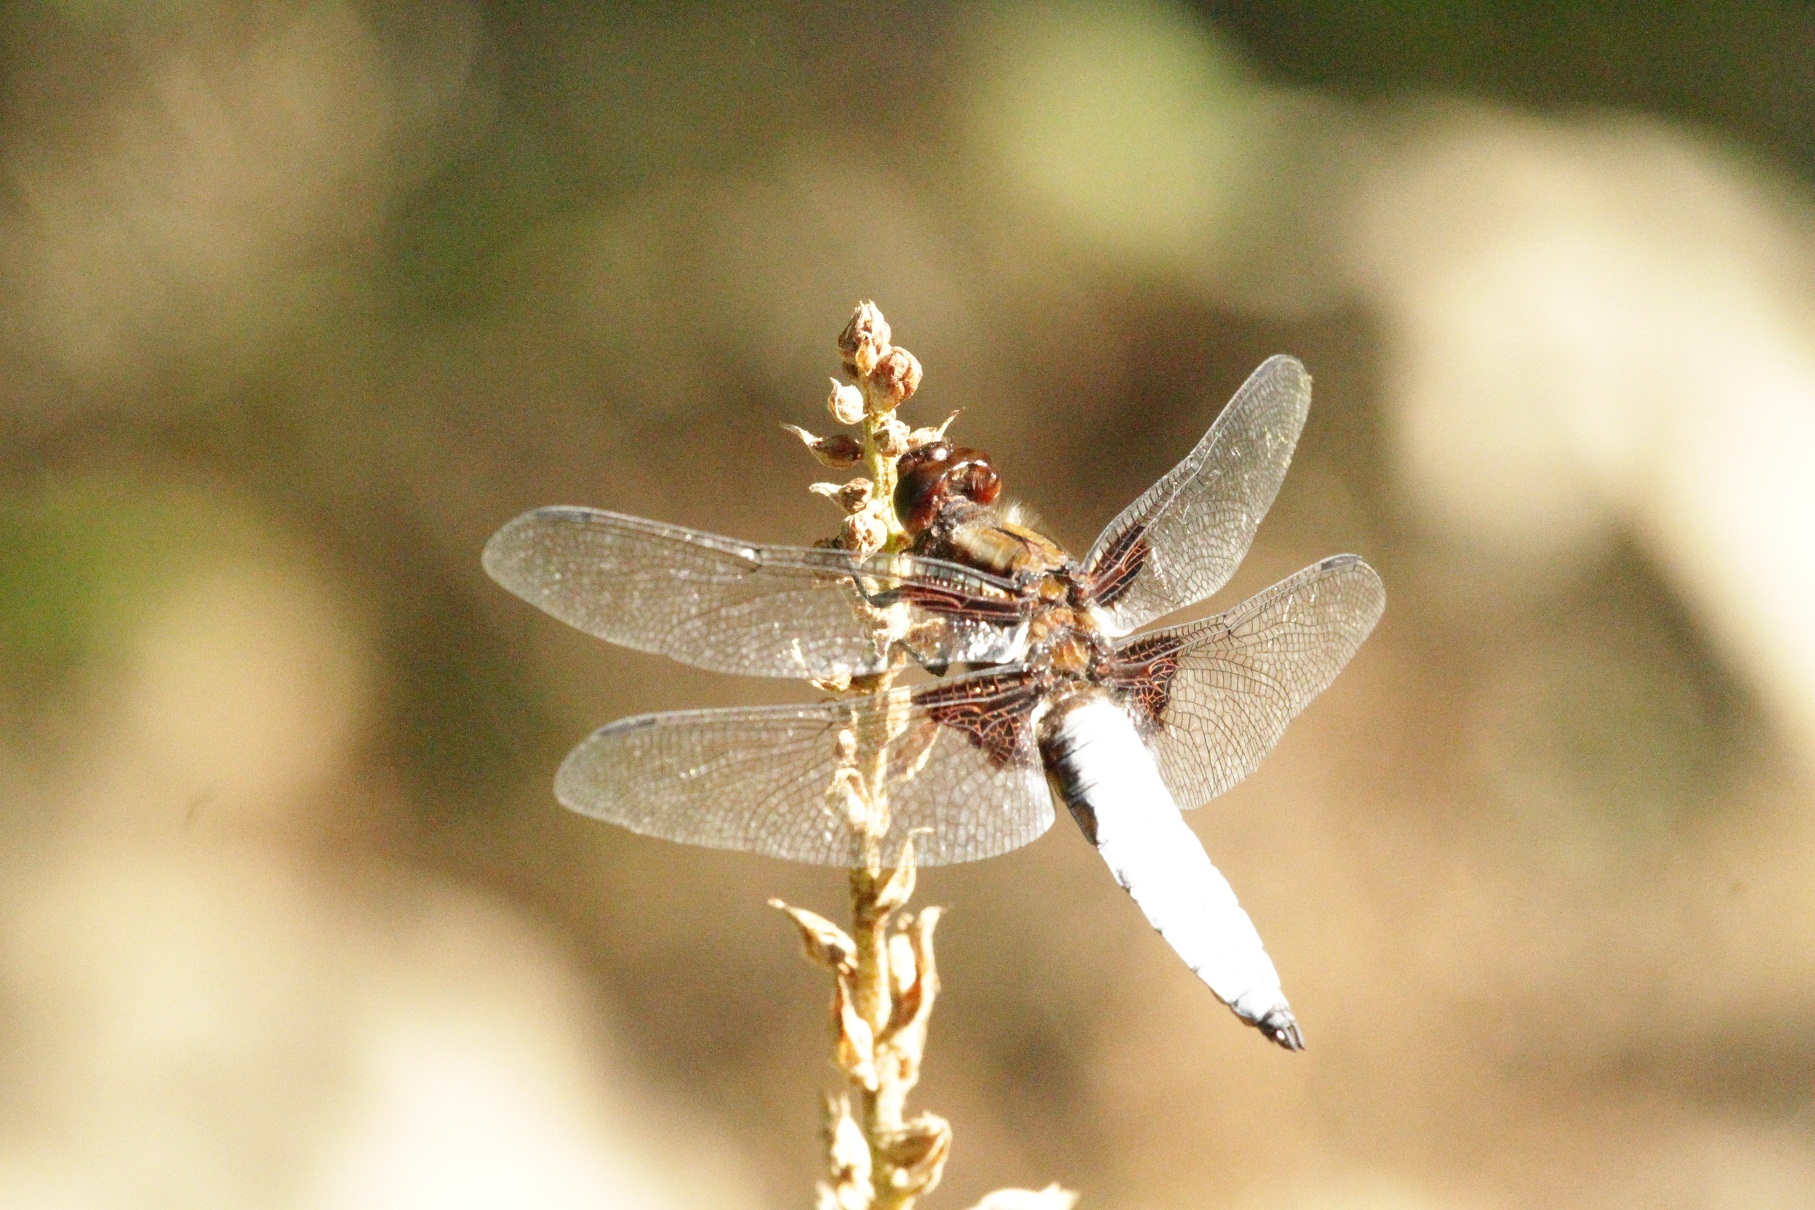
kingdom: Animalia
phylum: Arthropoda
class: Insecta
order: Odonata
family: Libellulidae
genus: Libellula
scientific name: Libellula depressa
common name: Broad-bodied chaser
